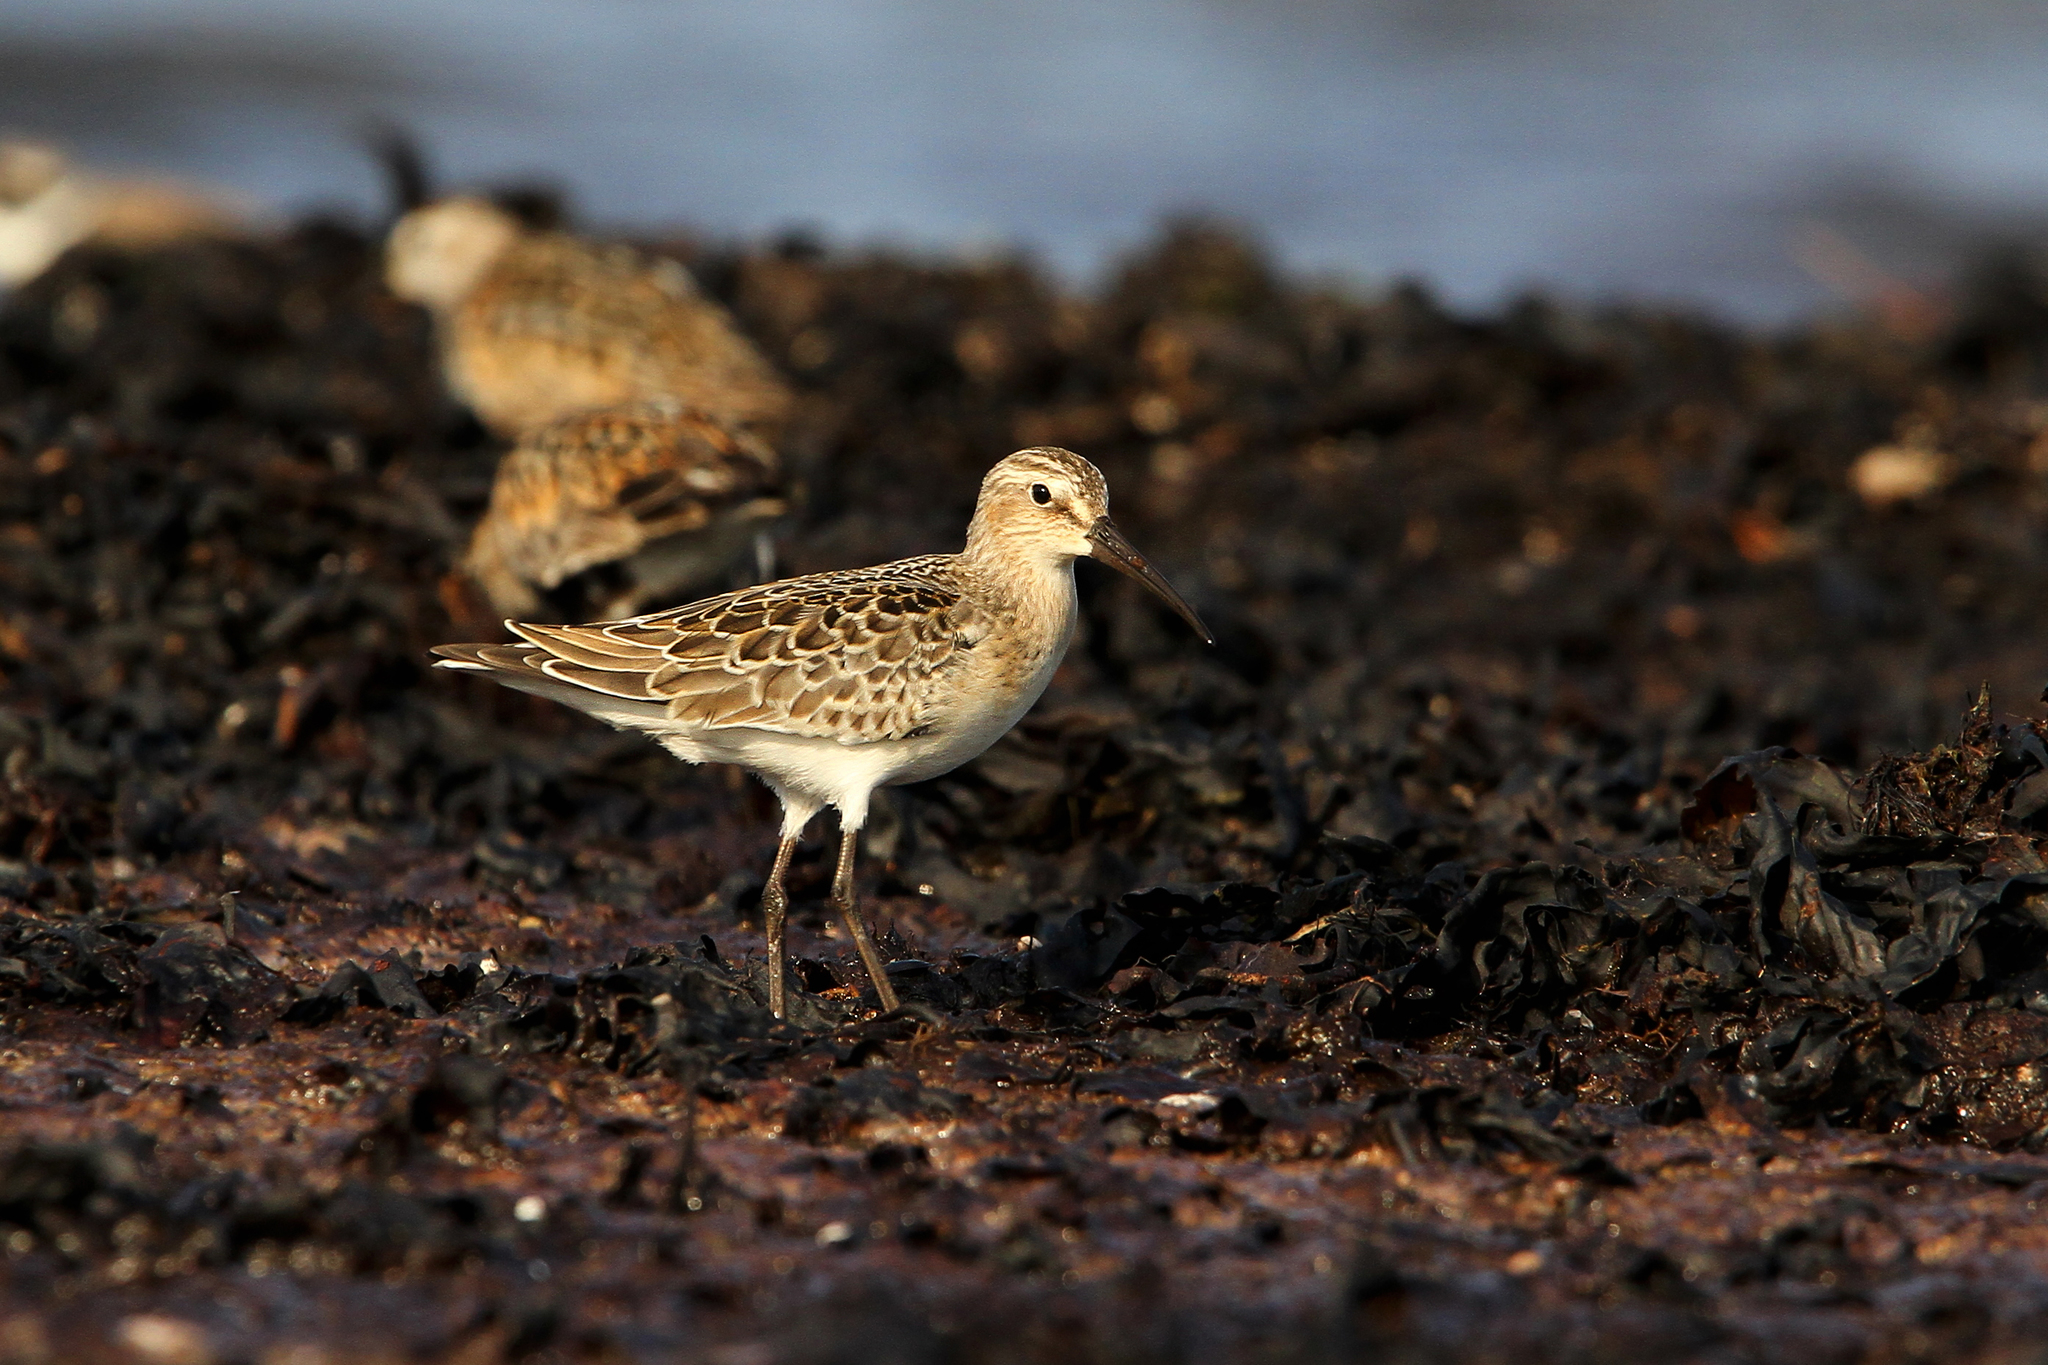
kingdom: Animalia
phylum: Chordata
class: Aves
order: Charadriiformes
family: Scolopacidae
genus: Calidris
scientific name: Calidris ferruginea
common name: Curlew sandpiper
